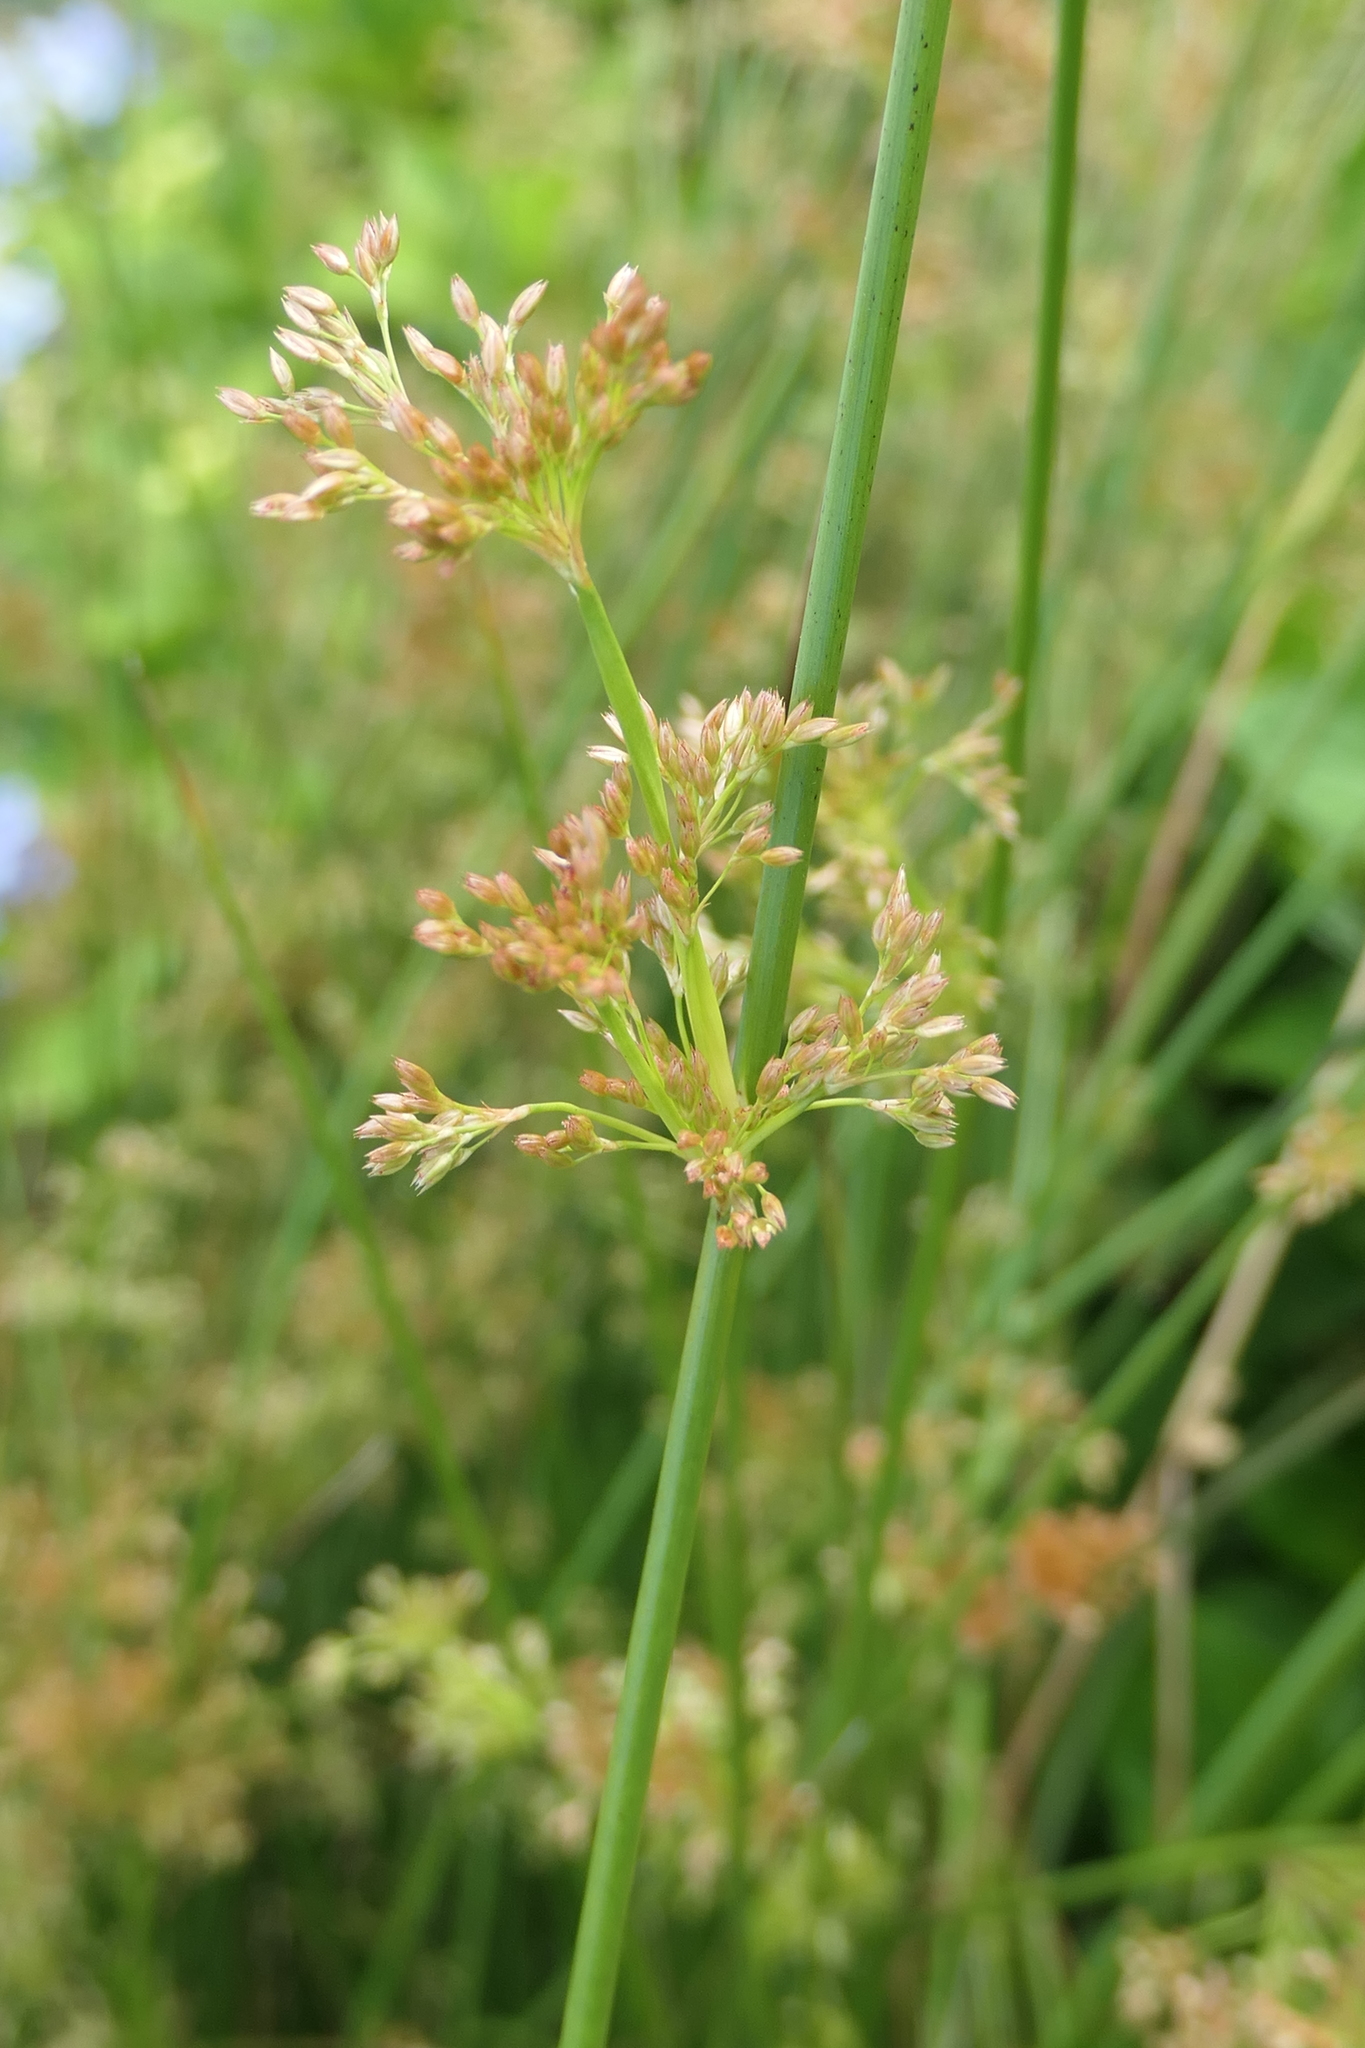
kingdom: Plantae
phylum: Tracheophyta
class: Liliopsida
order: Poales
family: Juncaceae
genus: Juncus
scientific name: Juncus effusus
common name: Soft rush
